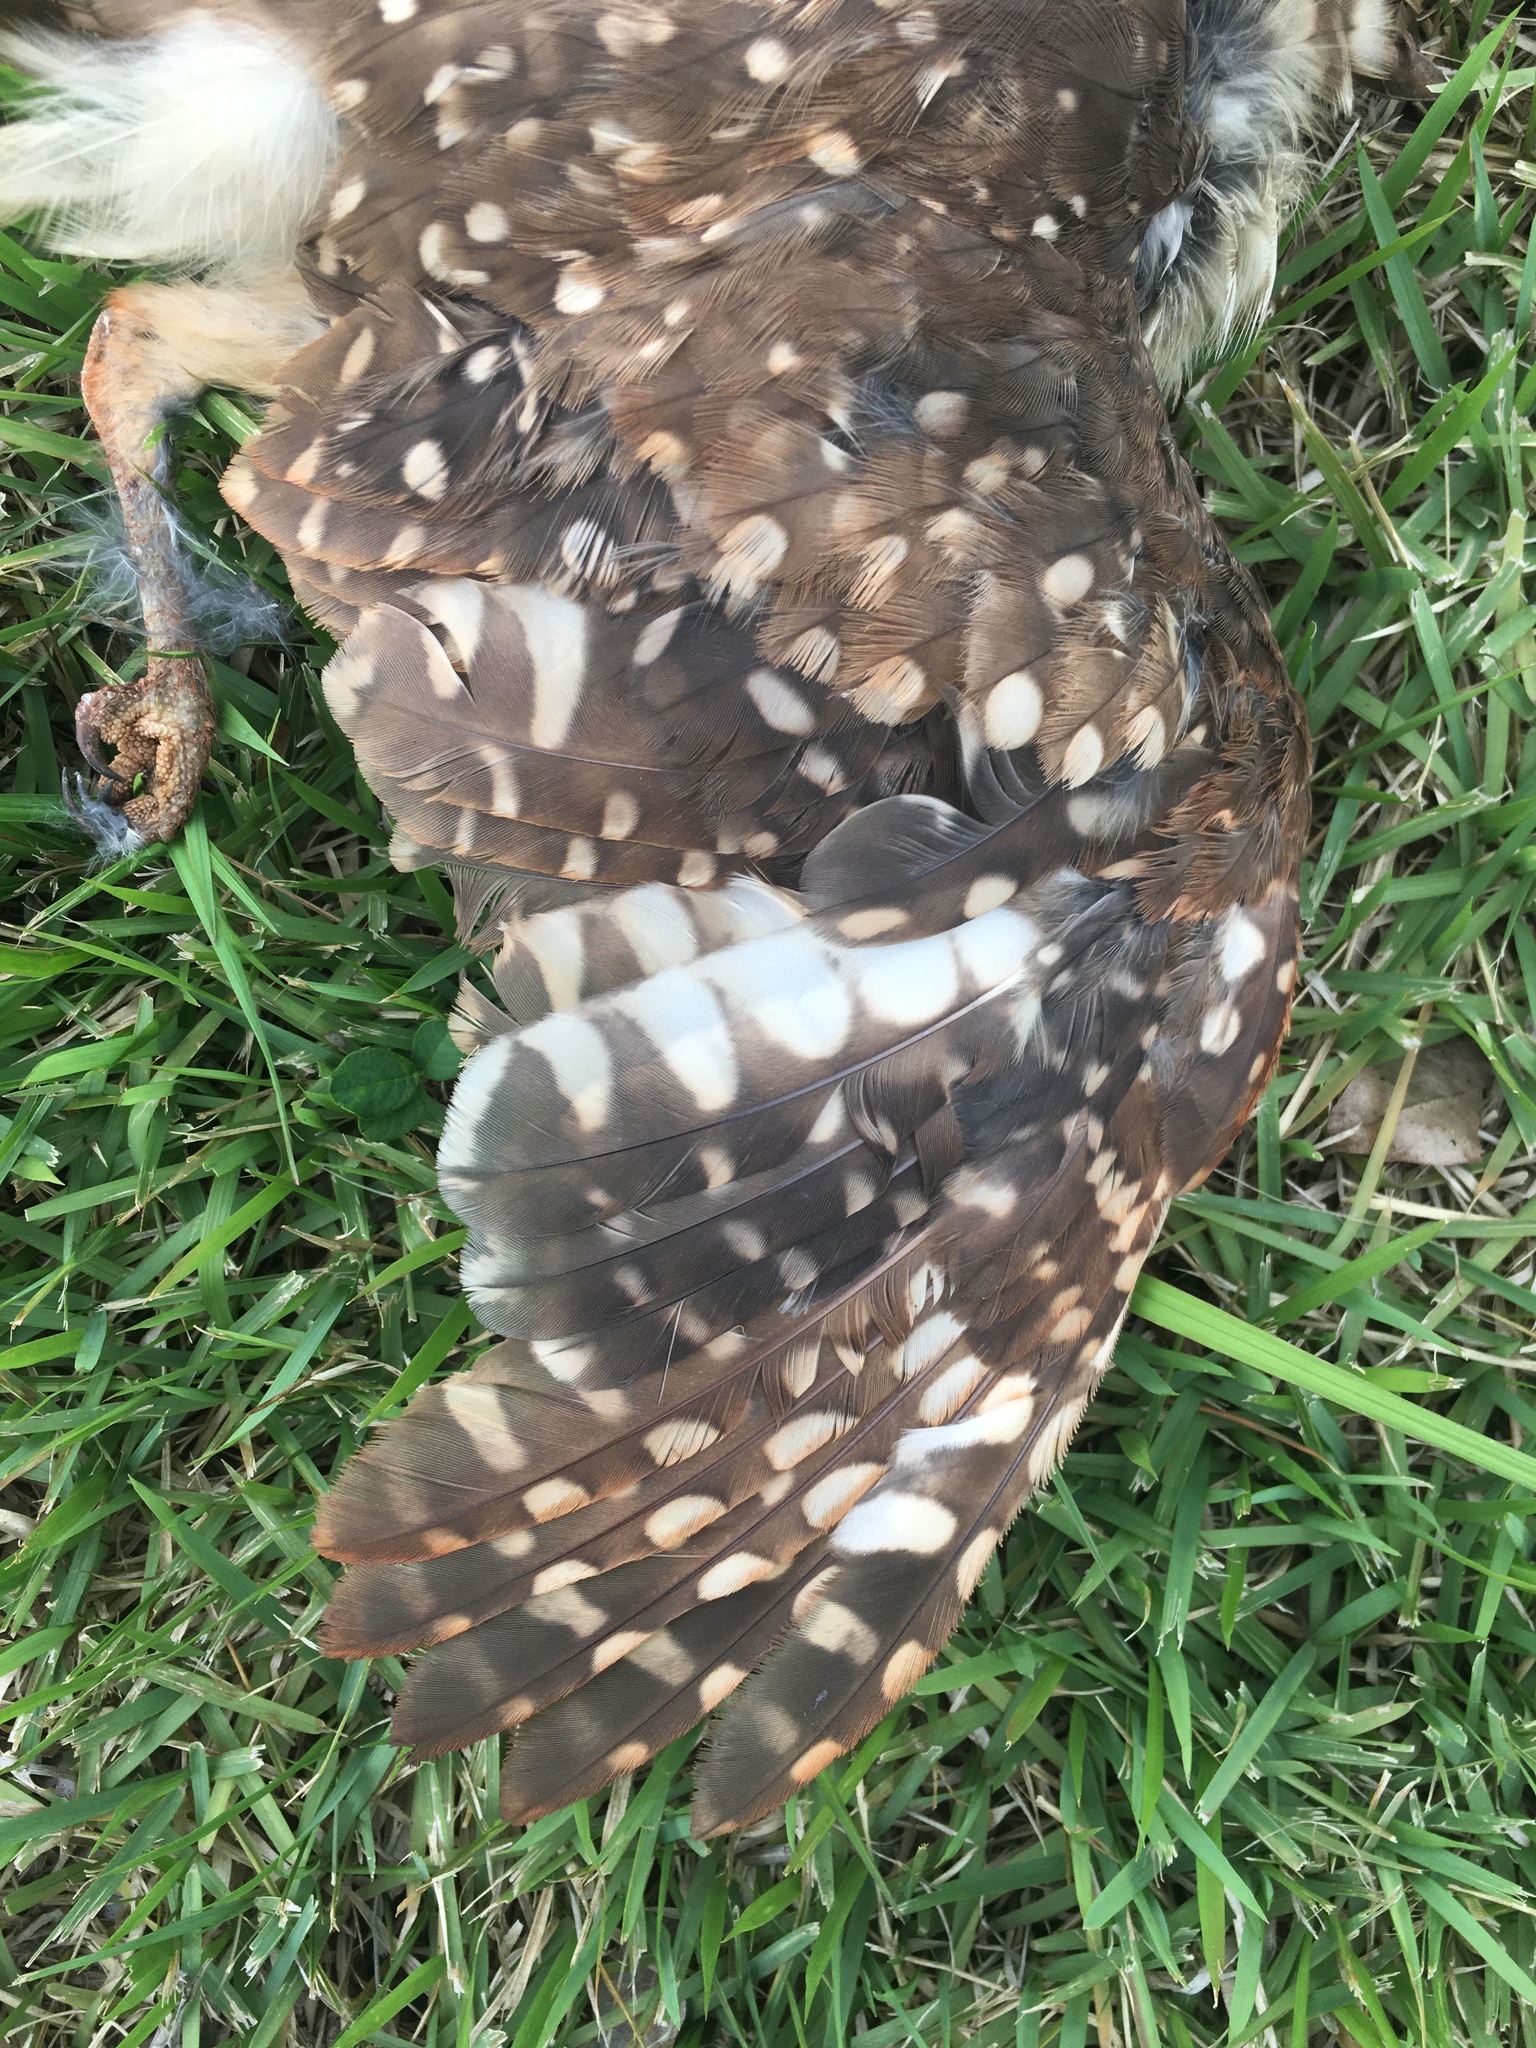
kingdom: Animalia
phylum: Chordata
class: Aves
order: Strigiformes
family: Strigidae
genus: Athene
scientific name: Athene cunicularia
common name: Burrowing owl
